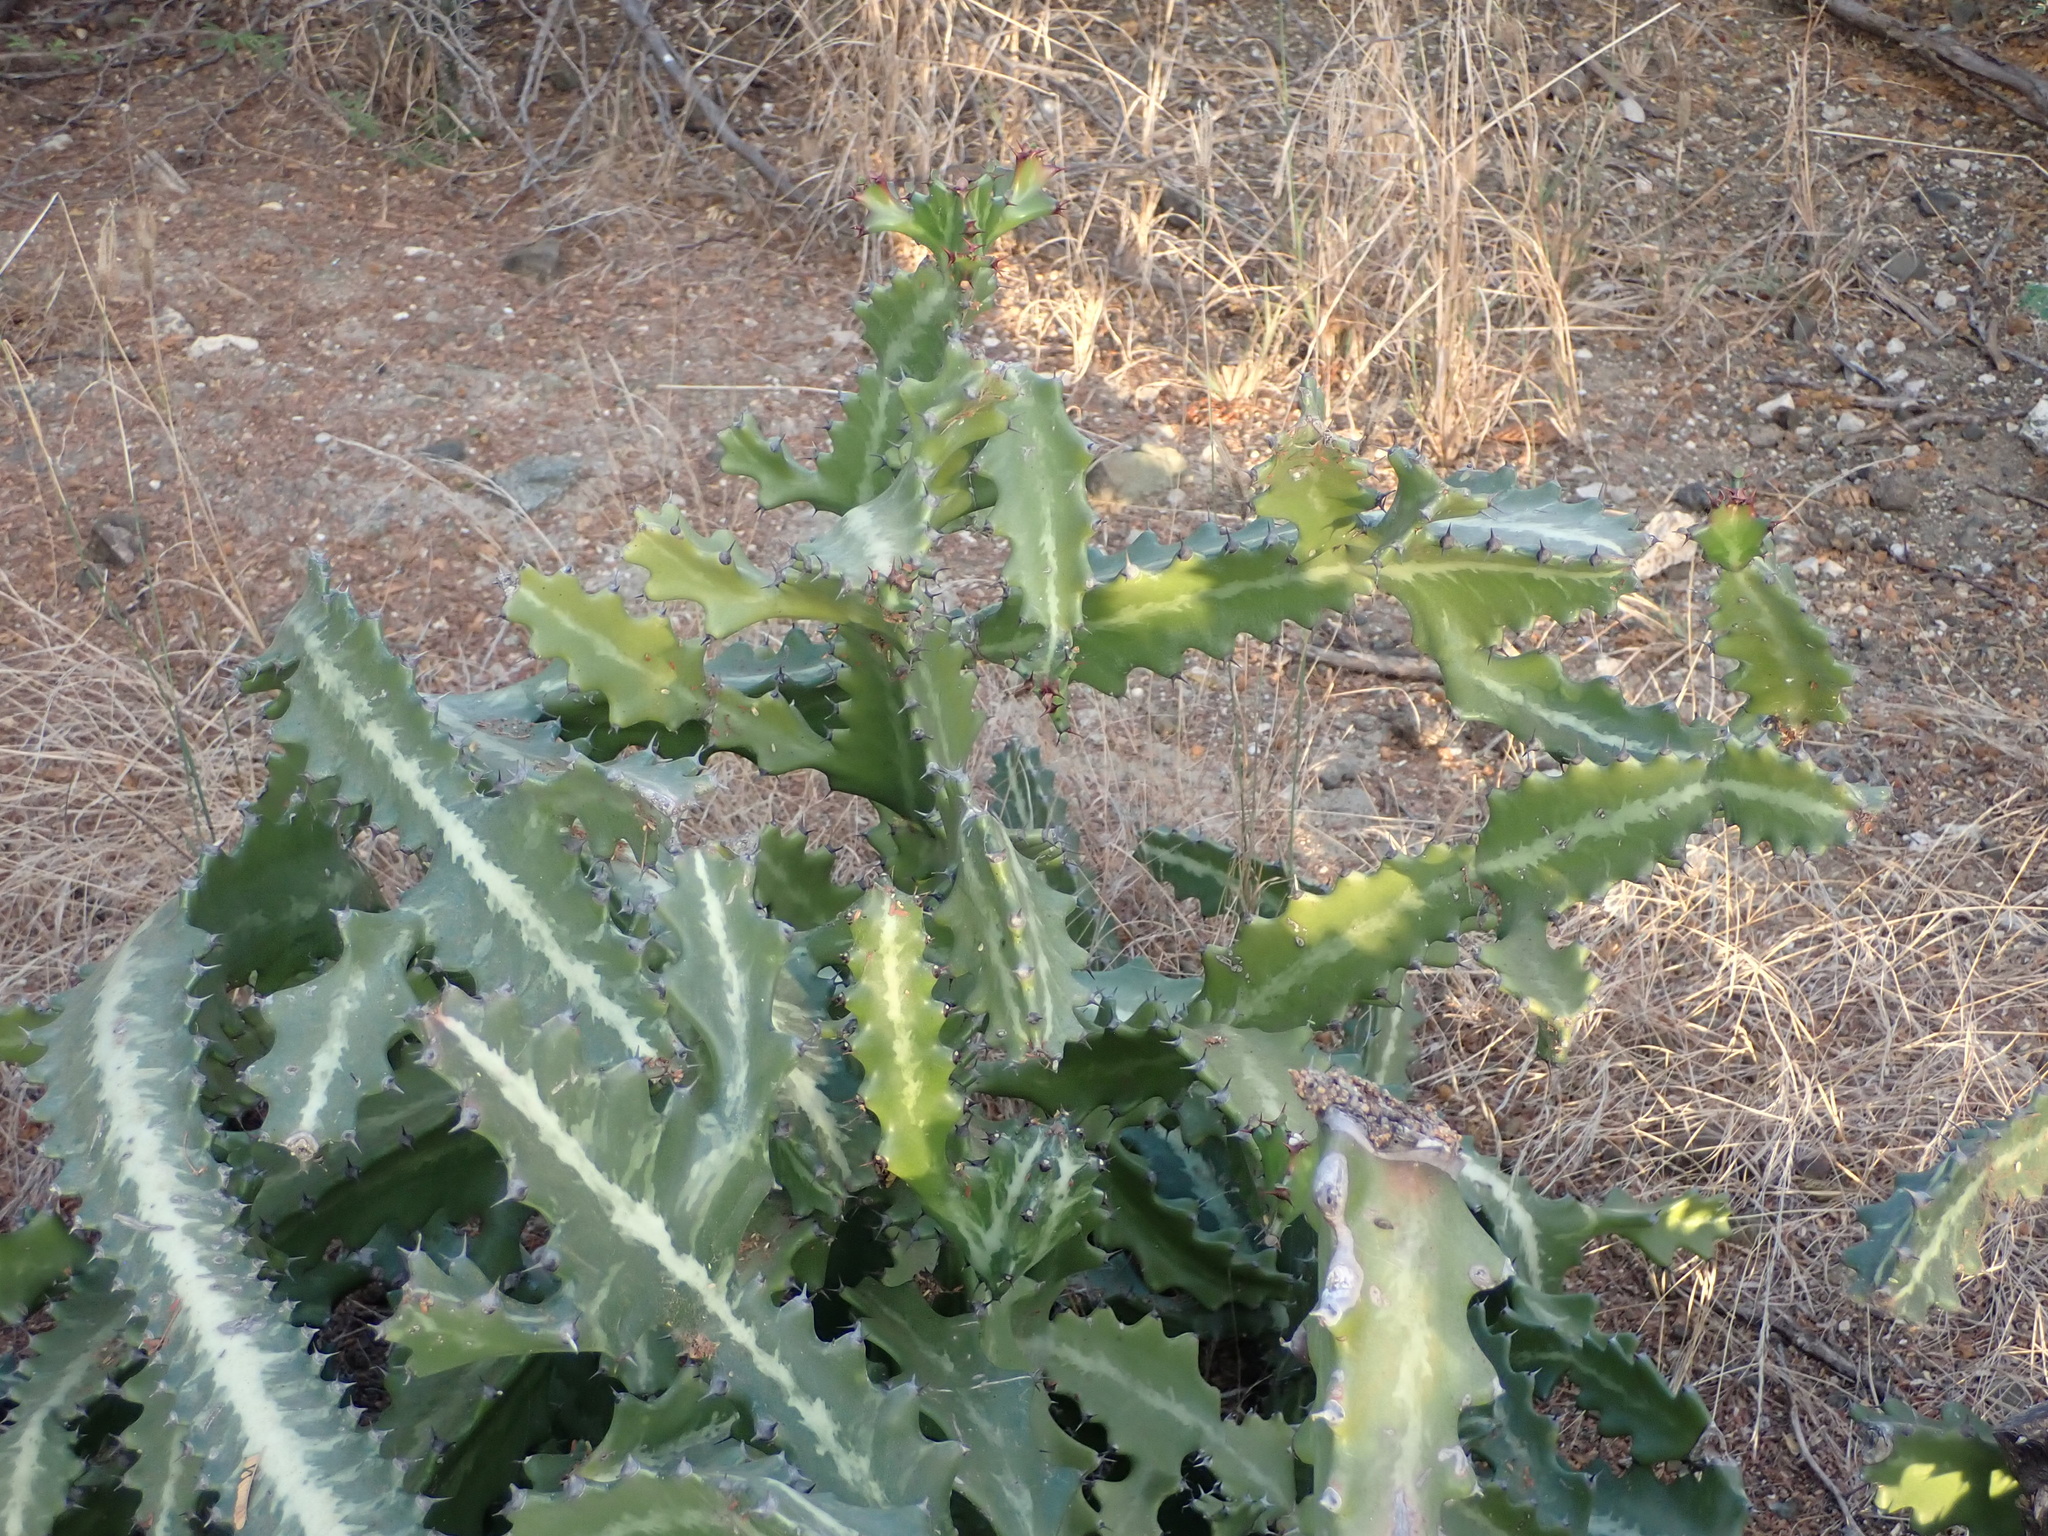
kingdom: Plantae
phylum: Tracheophyta
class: Magnoliopsida
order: Malpighiales
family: Euphorbiaceae
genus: Euphorbia
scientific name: Euphorbia lactea
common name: Mottled spurge
